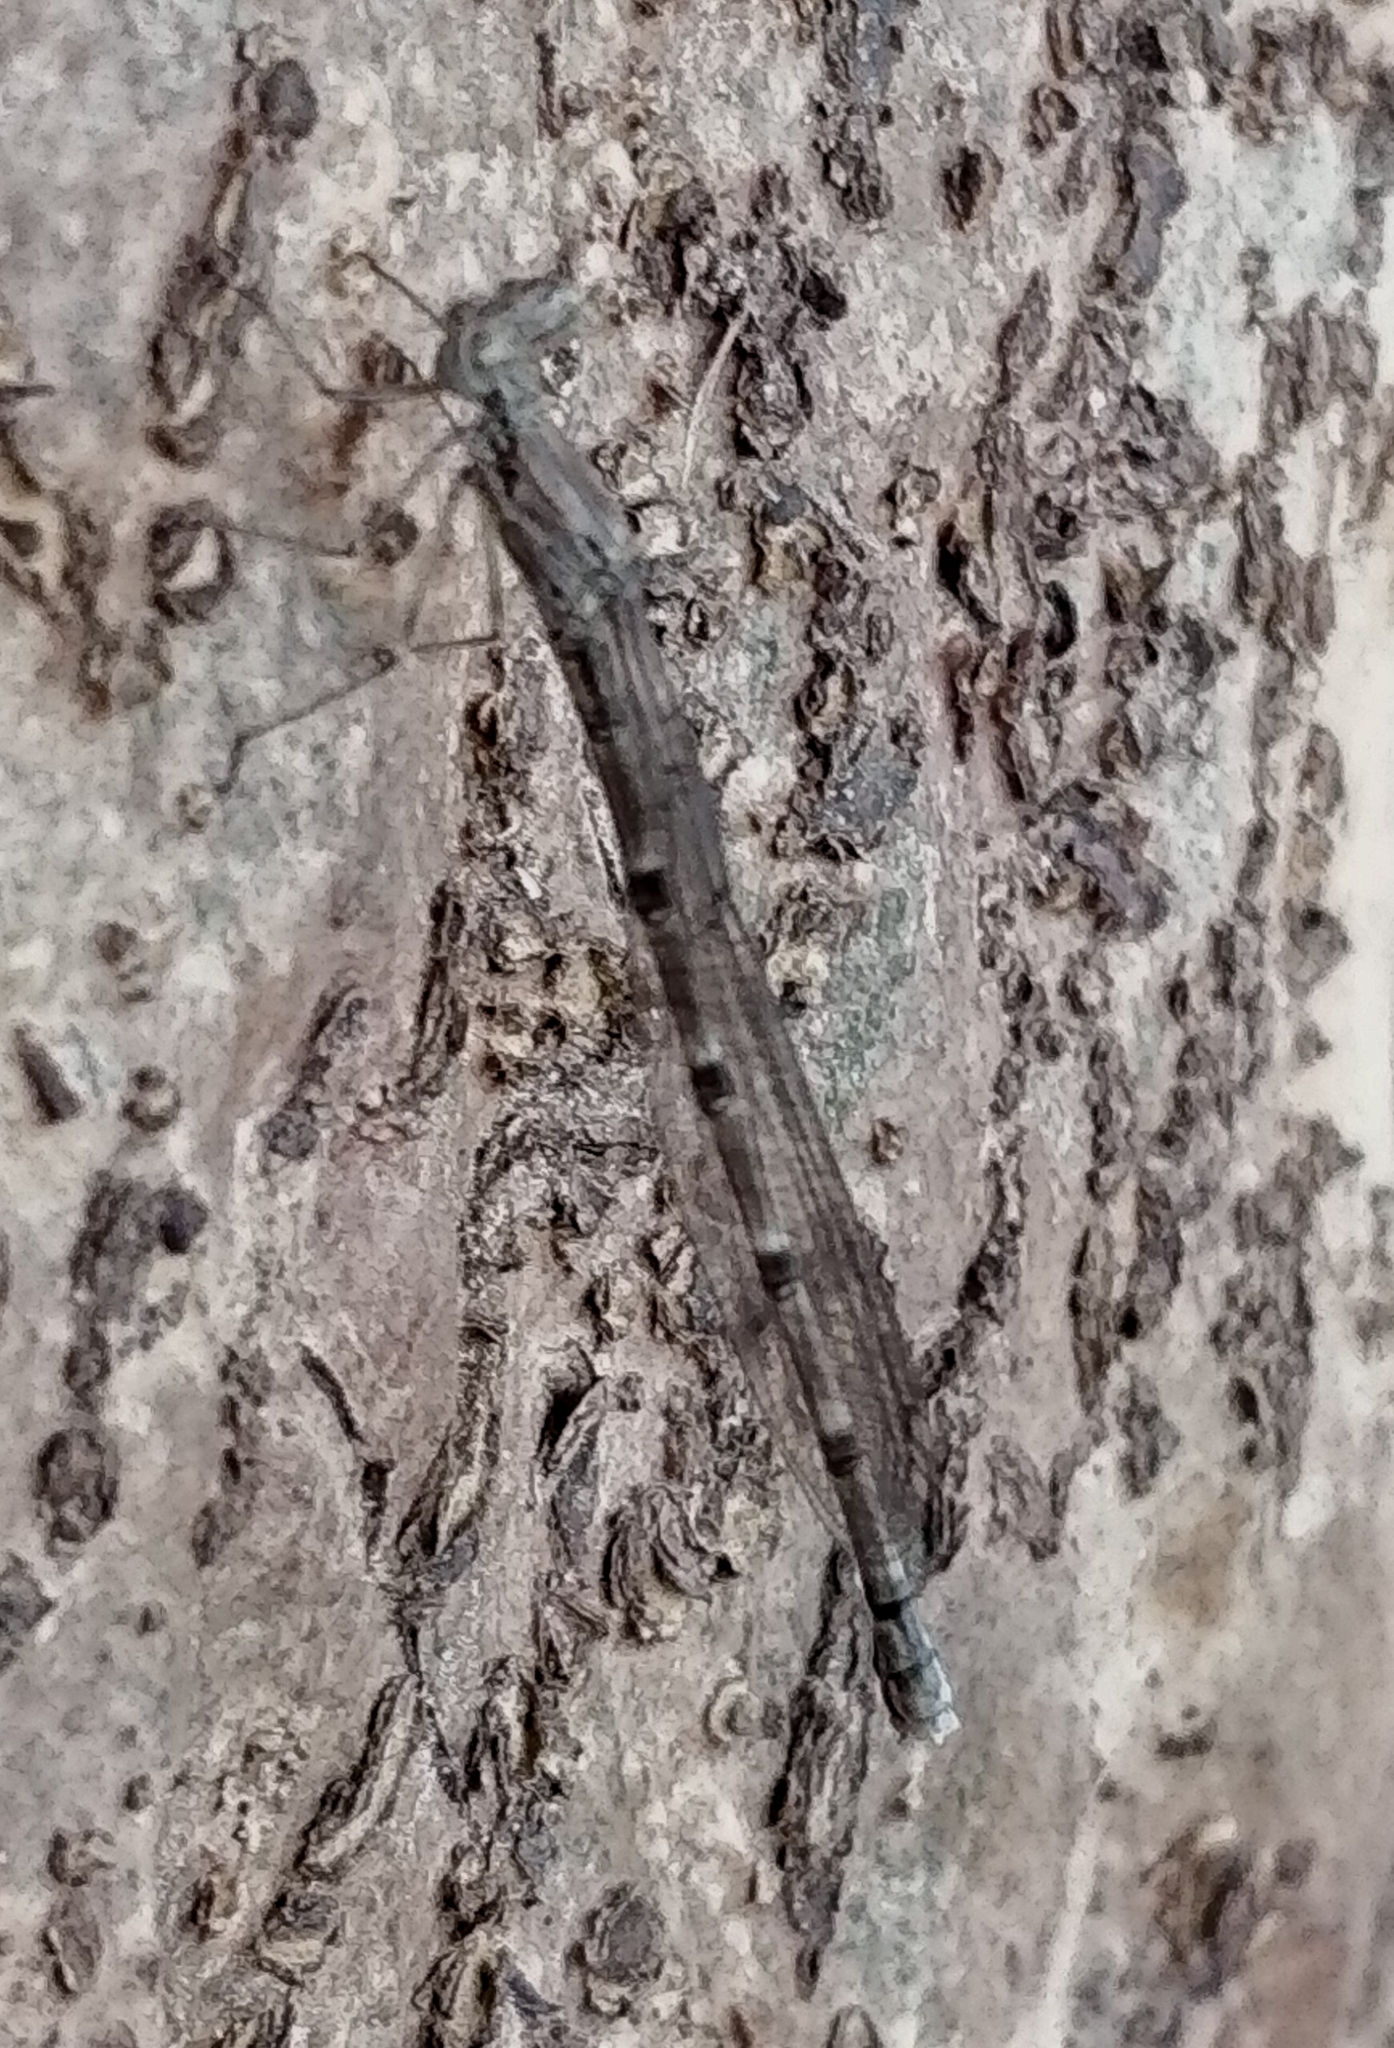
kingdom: Animalia
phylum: Arthropoda
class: Insecta
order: Odonata
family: Platycnemididae
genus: Disparoneura
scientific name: Disparoneura quadrimaculata
